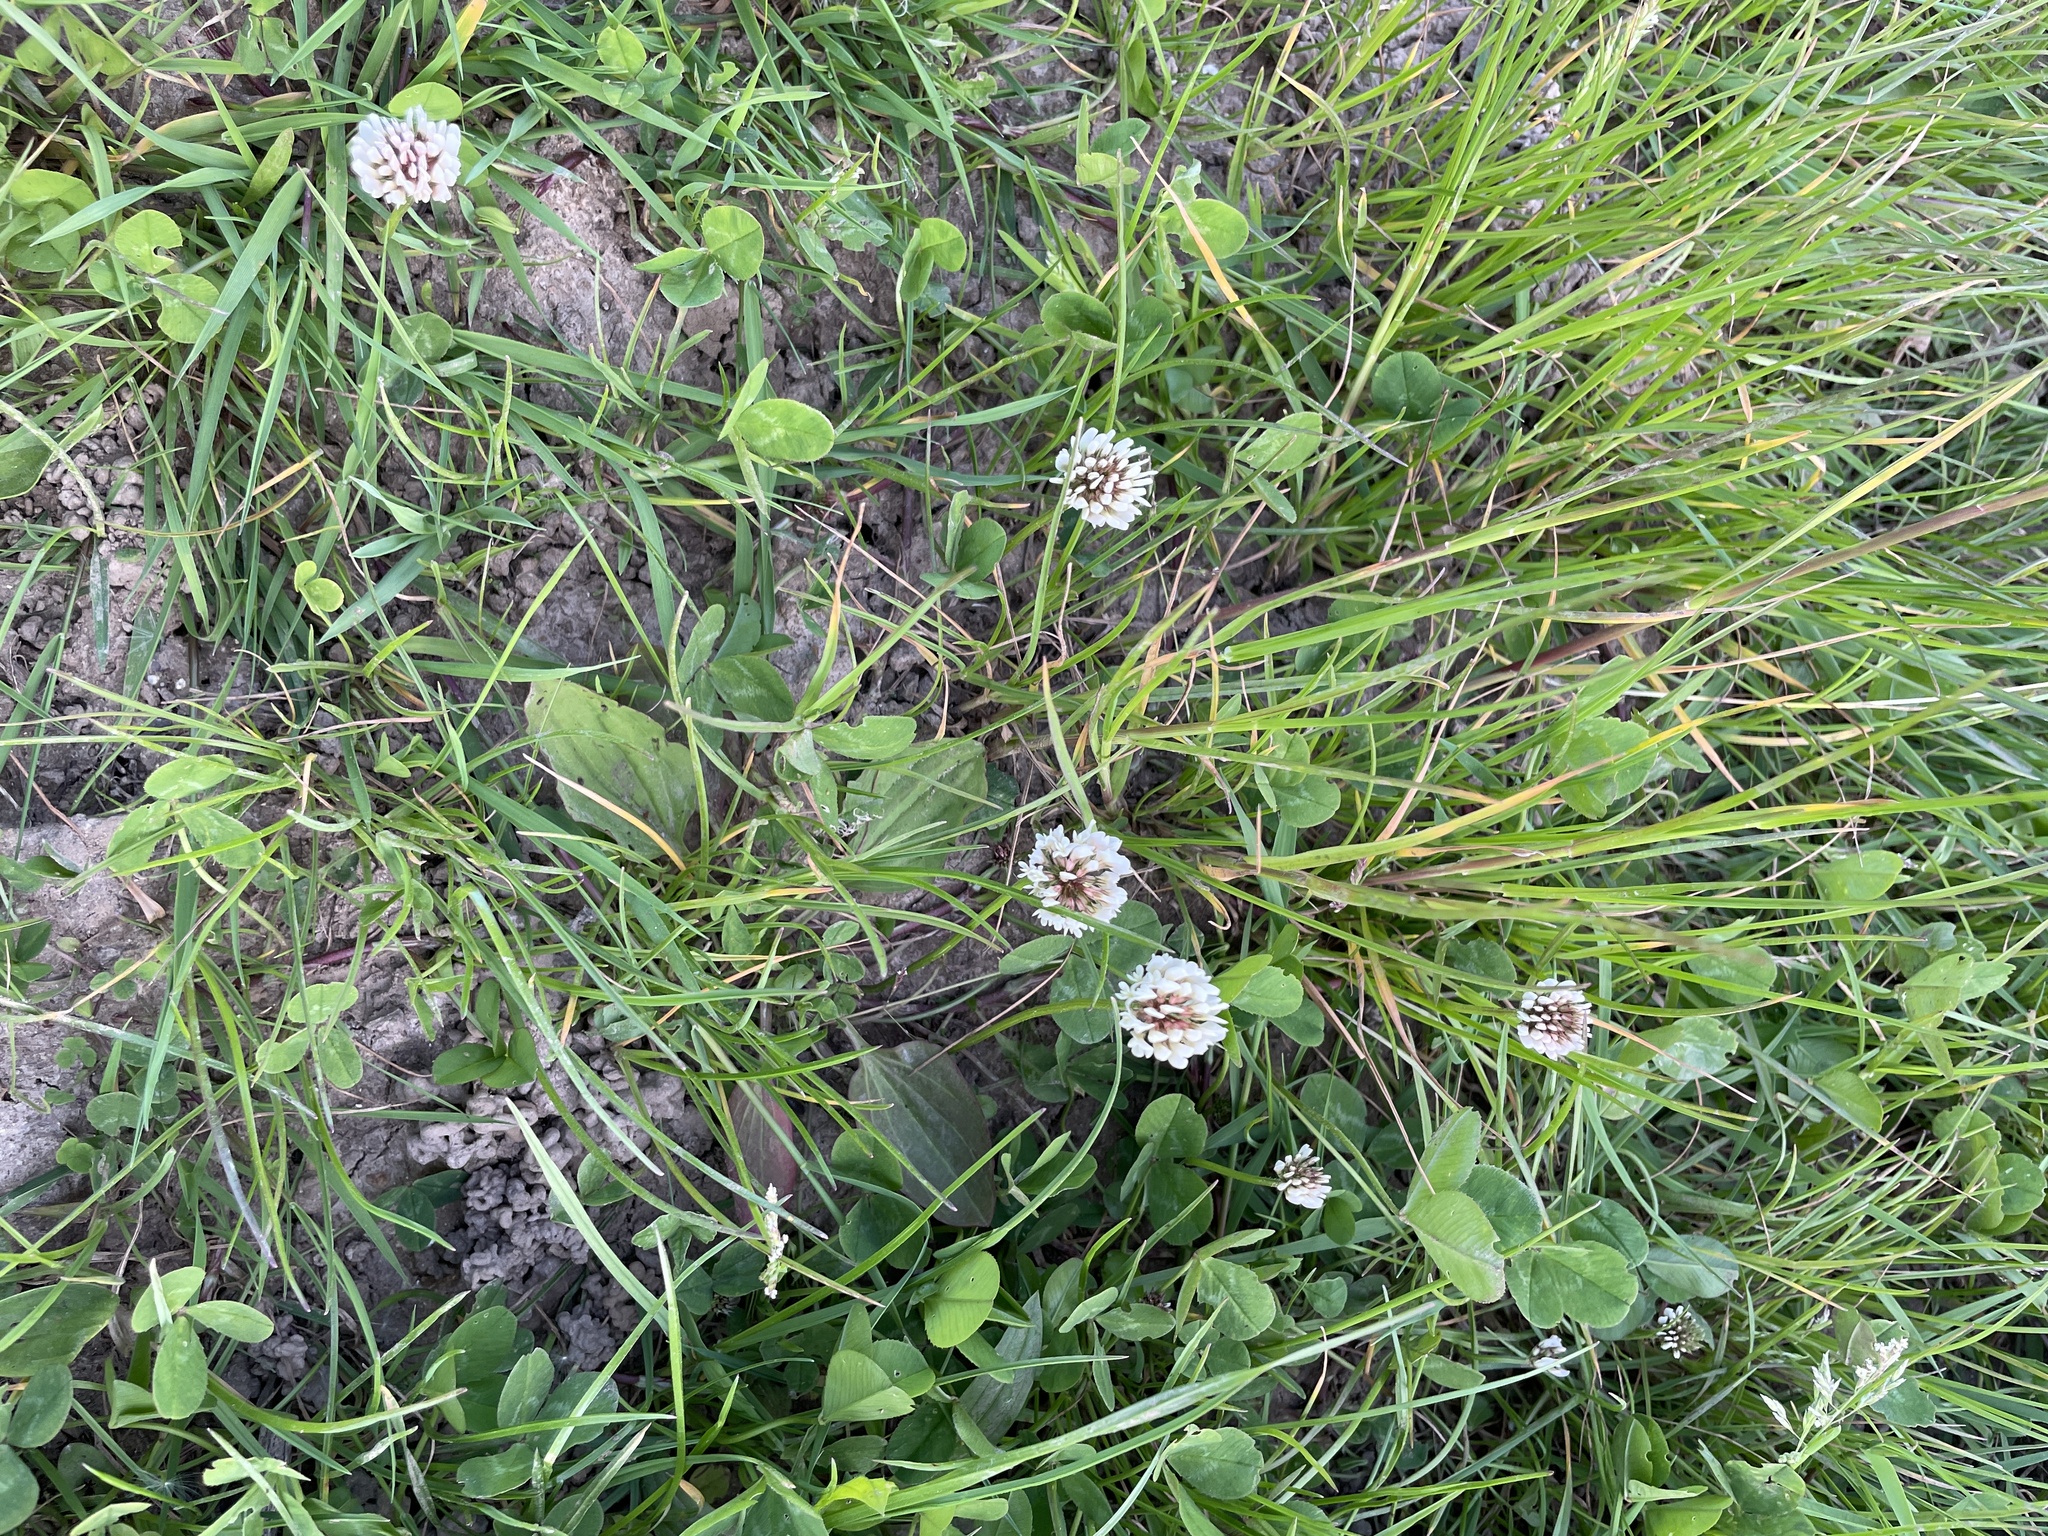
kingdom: Plantae
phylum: Tracheophyta
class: Magnoliopsida
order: Fabales
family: Fabaceae
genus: Trifolium
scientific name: Trifolium repens
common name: White clover
